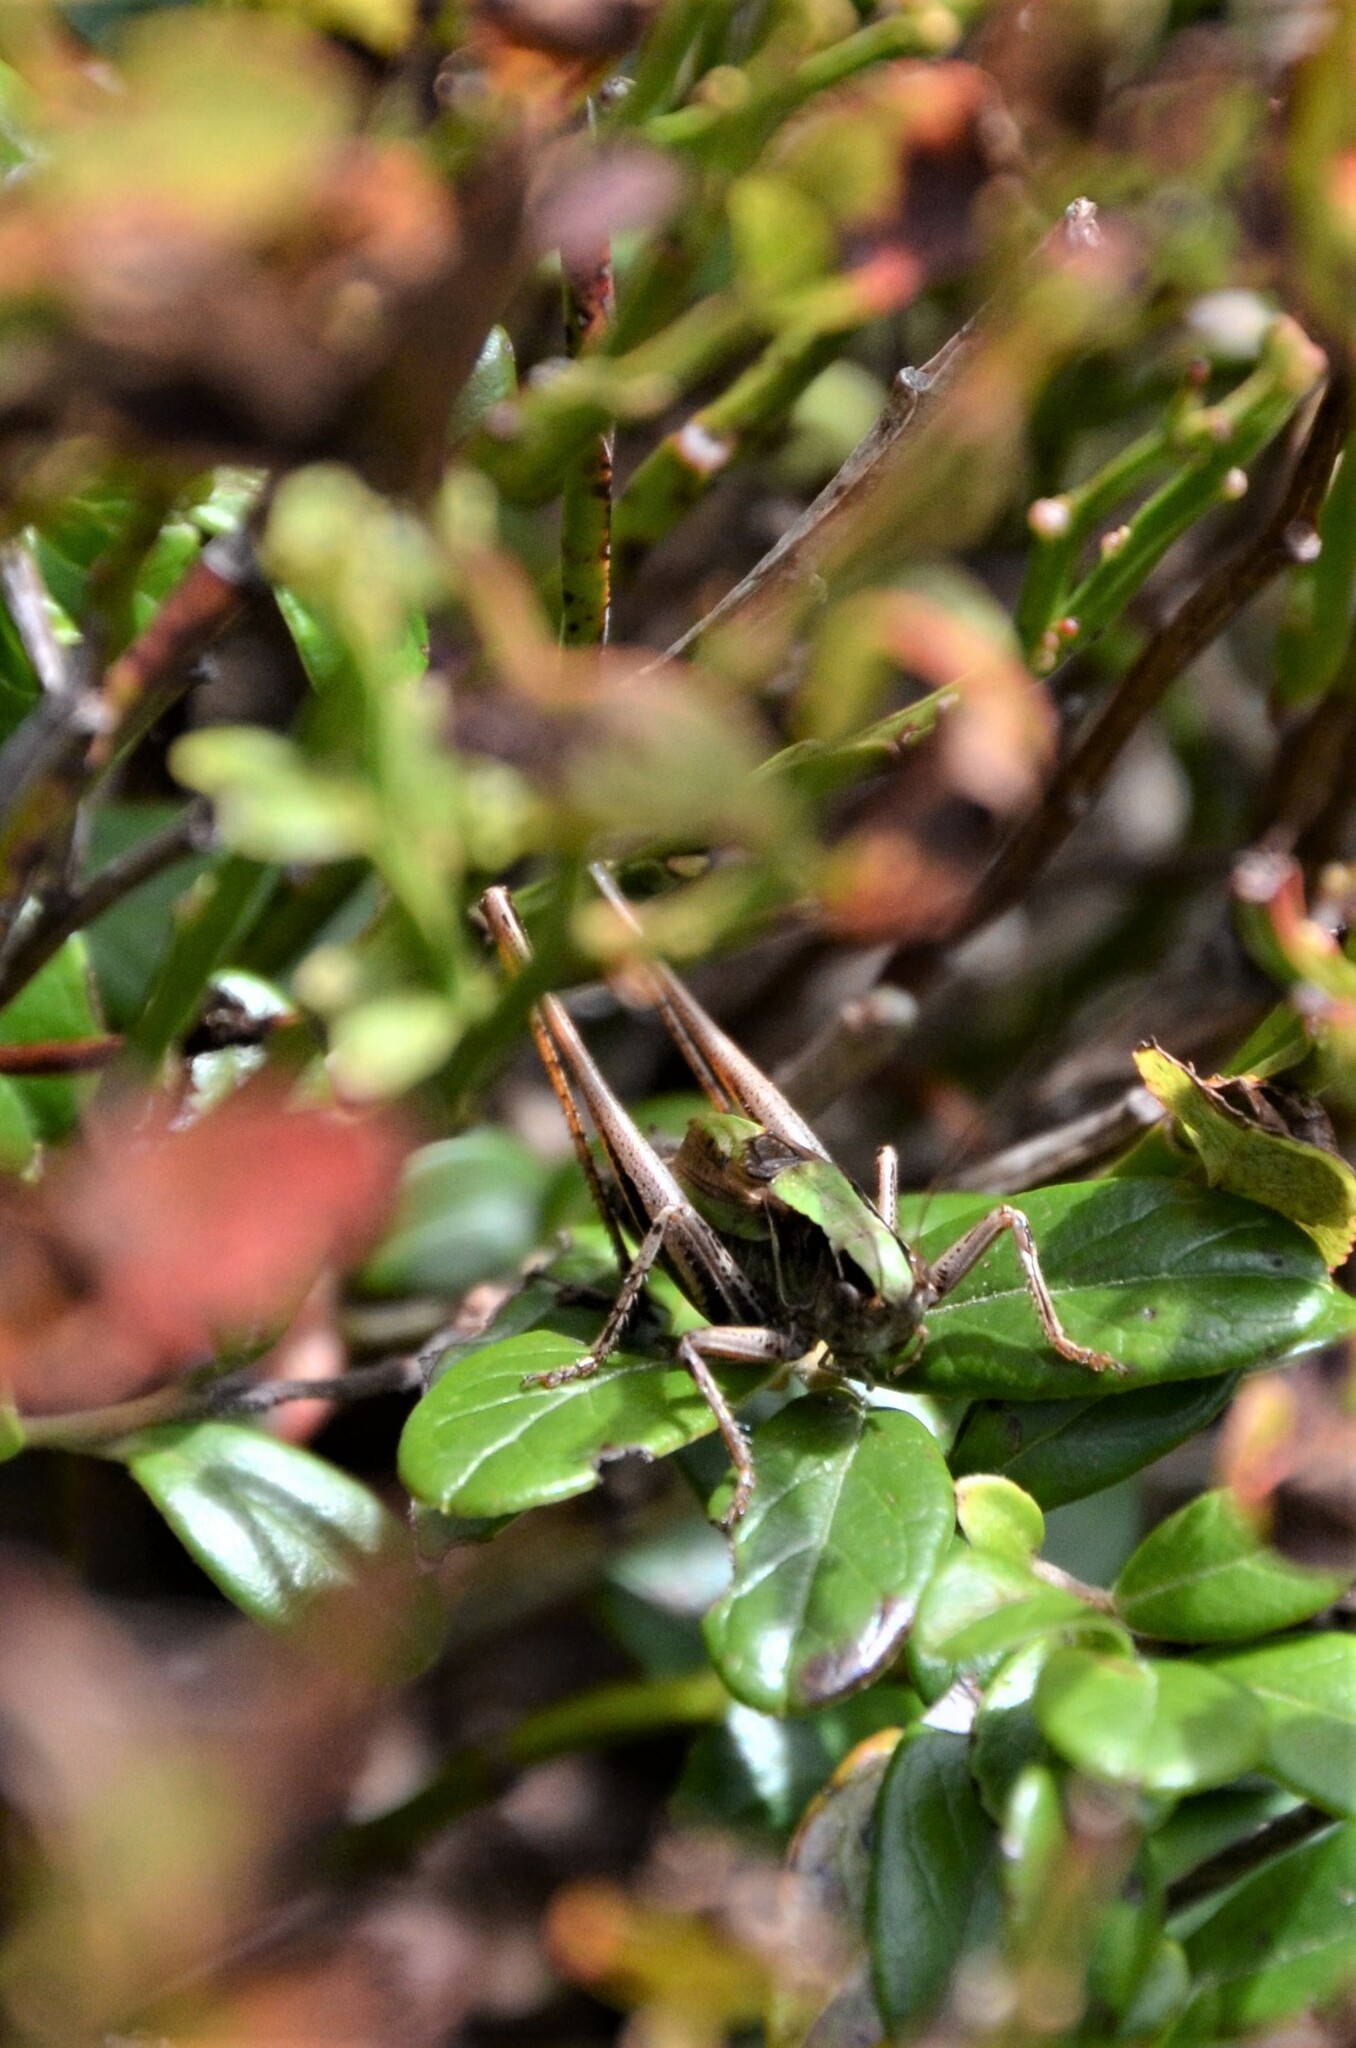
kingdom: Animalia
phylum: Arthropoda
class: Insecta
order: Orthoptera
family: Tettigoniidae
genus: Metrioptera
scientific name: Metrioptera brachyptera
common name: Bog bush-cricket
